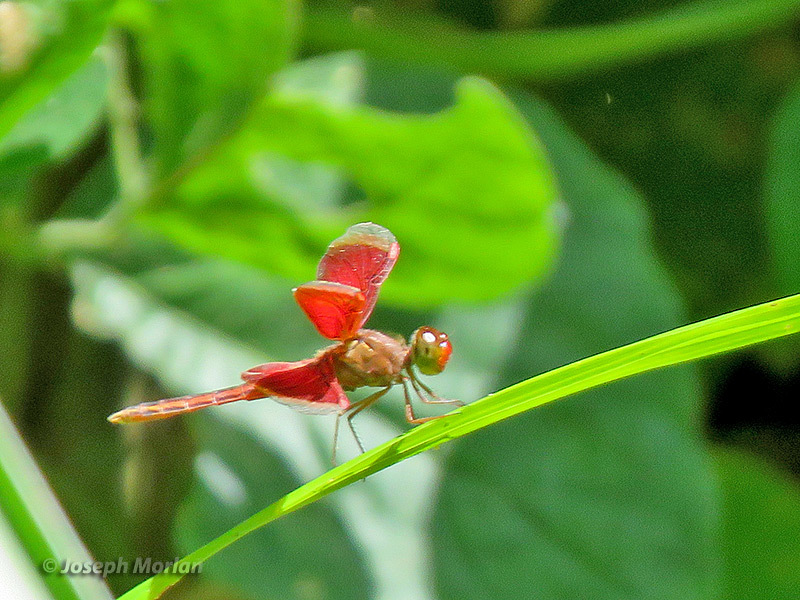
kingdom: Animalia
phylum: Arthropoda
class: Insecta
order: Odonata
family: Libellulidae
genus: Neurothemis
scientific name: Neurothemis stigmatizans
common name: Painted grasshawk
